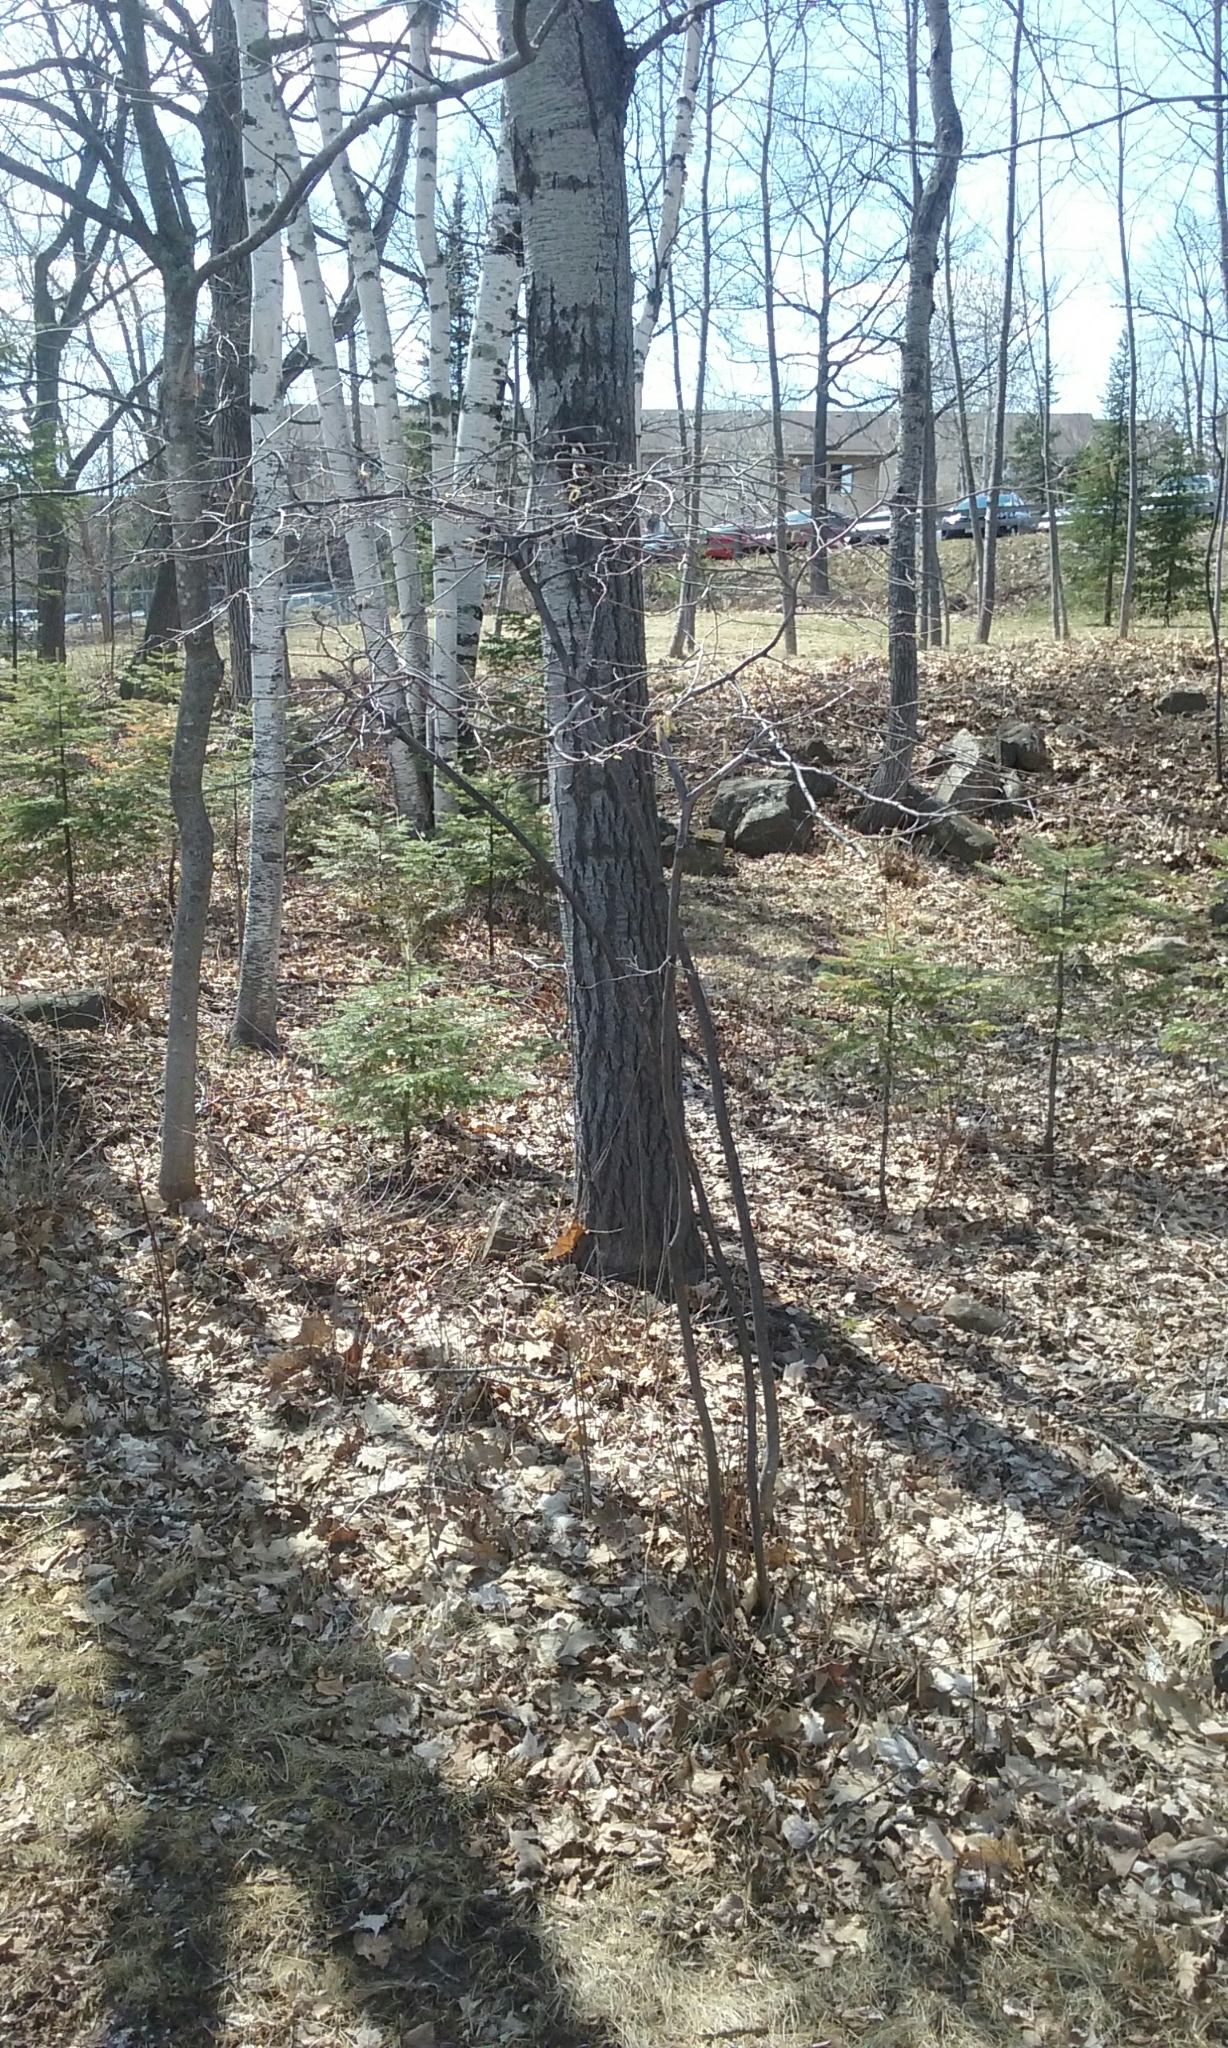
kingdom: Plantae
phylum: Tracheophyta
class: Magnoliopsida
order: Fagales
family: Betulaceae
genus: Corylus
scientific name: Corylus cornuta
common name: Beaked hazel
